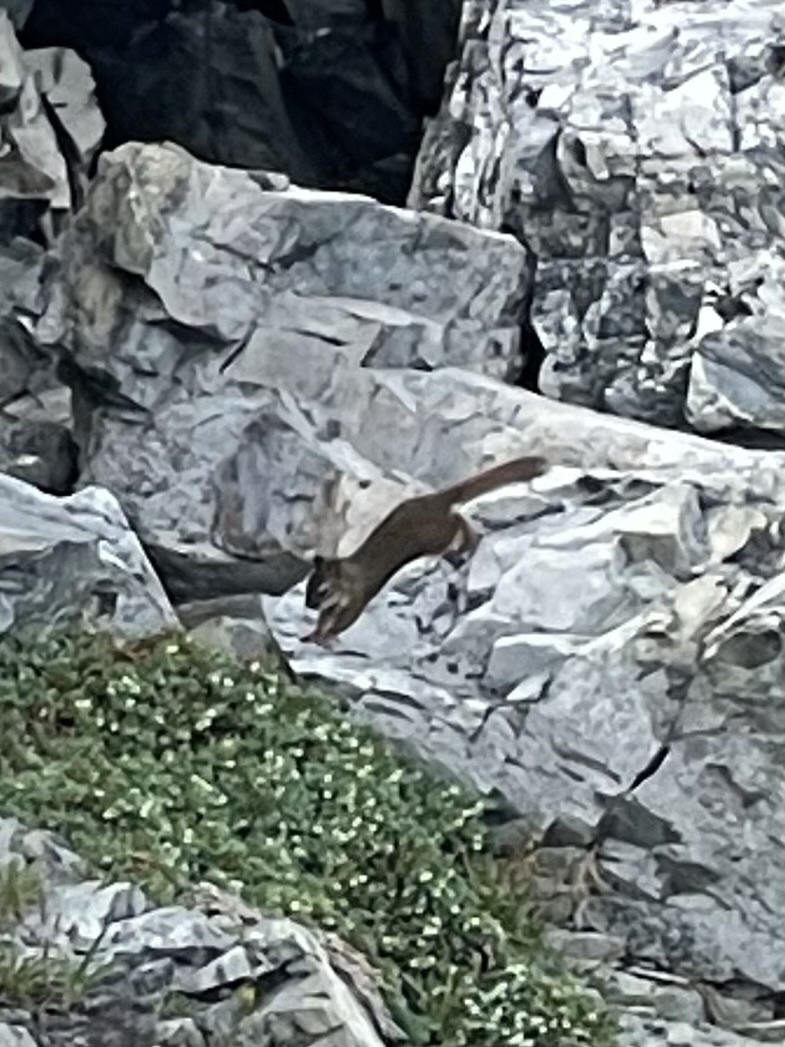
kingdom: Animalia
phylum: Chordata
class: Mammalia
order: Rodentia
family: Sciuridae
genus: Tamiasciurus
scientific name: Tamiasciurus hudsonicus
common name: Red squirrel
